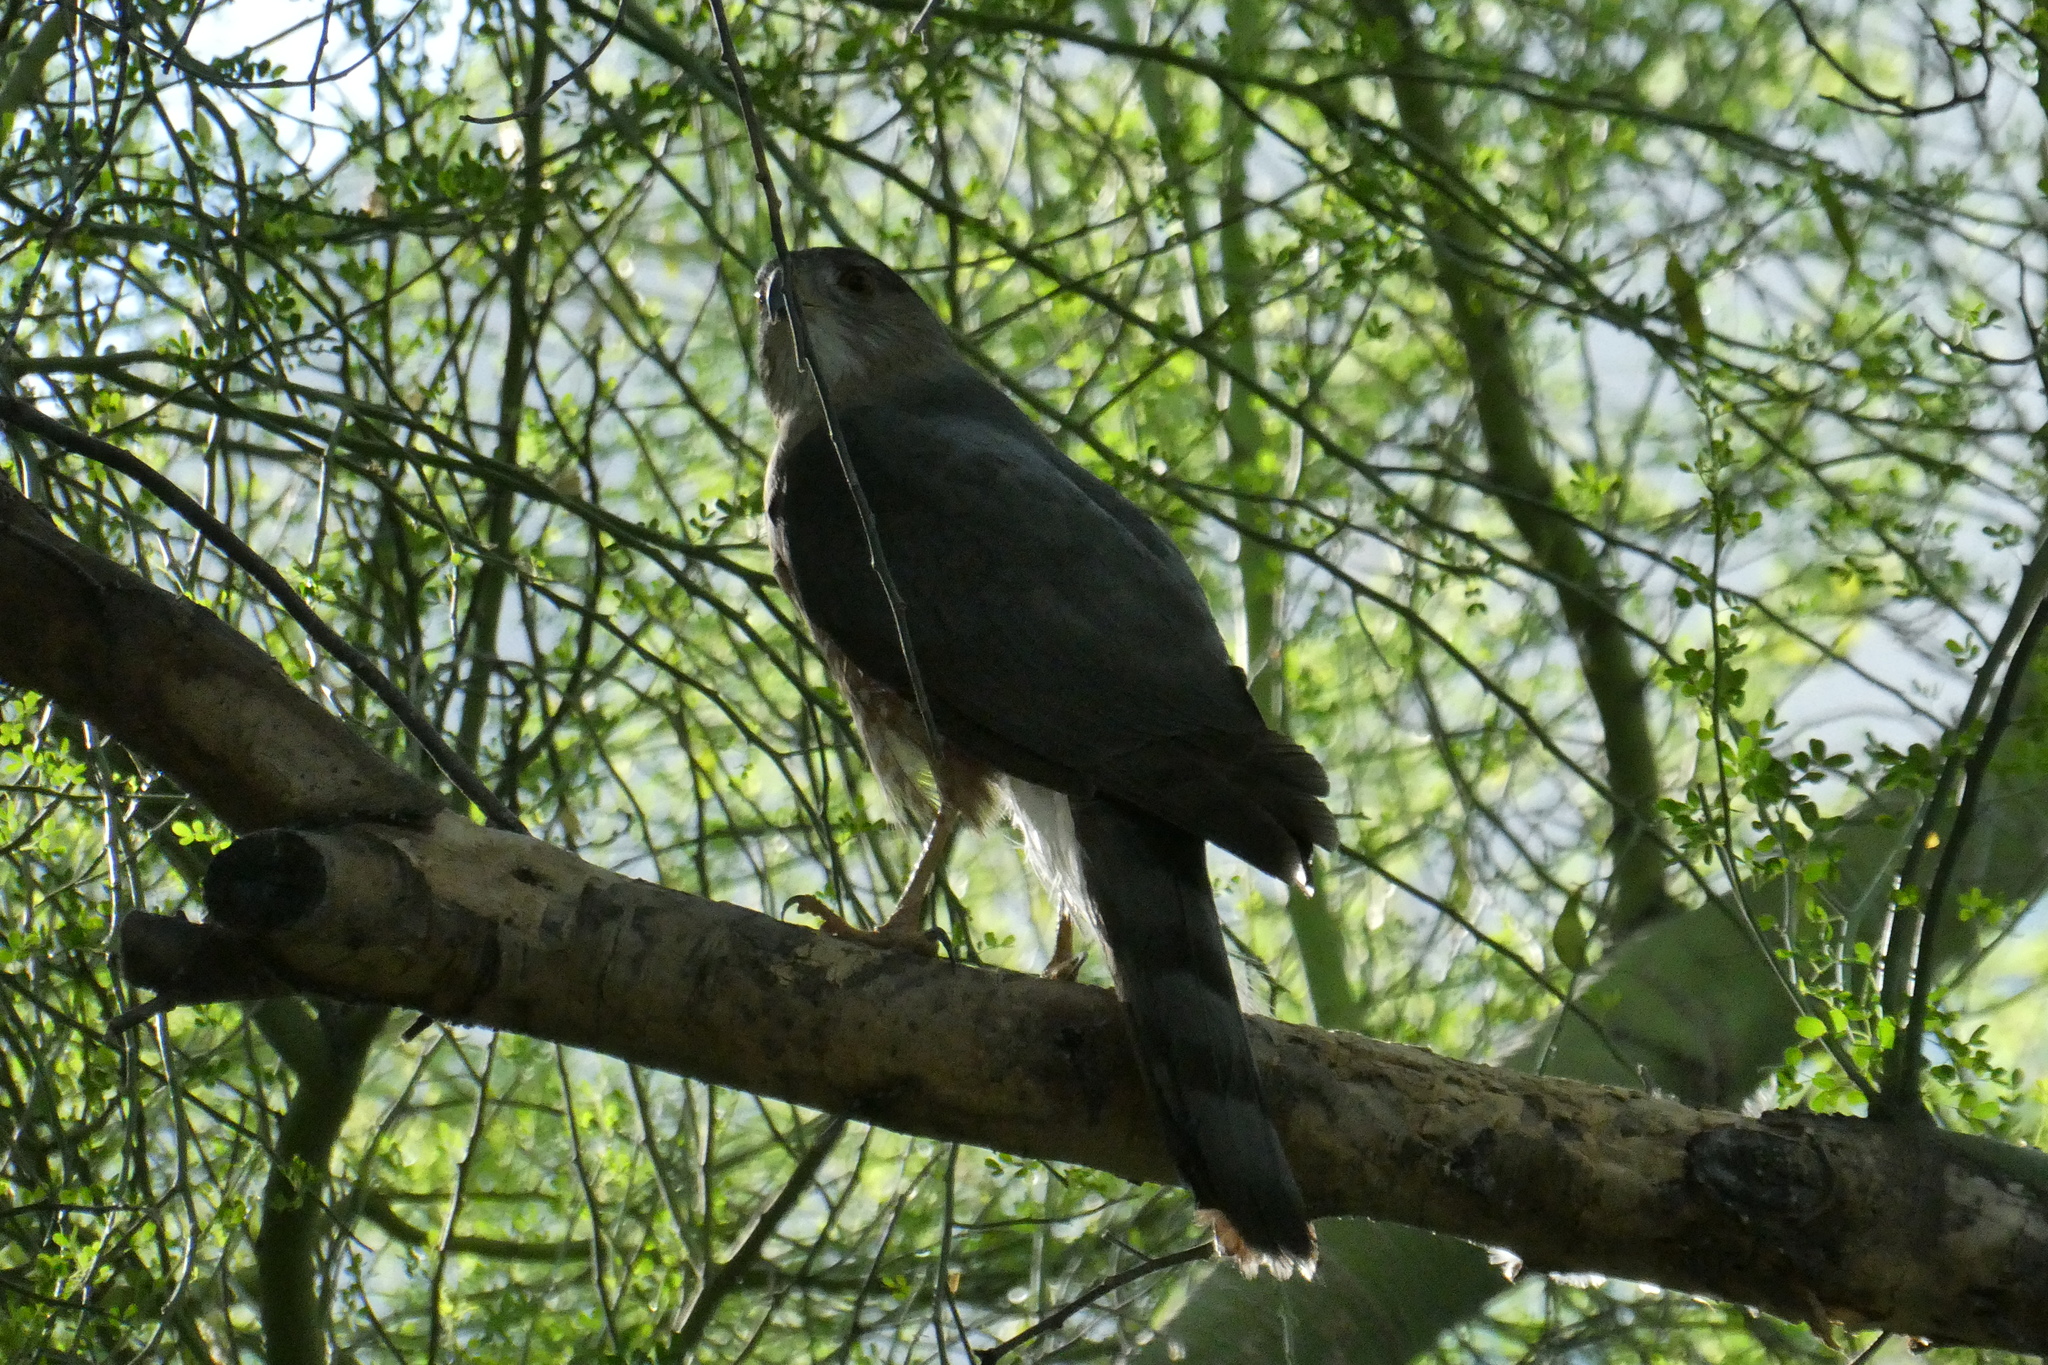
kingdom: Animalia
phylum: Chordata
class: Aves
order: Accipitriformes
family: Accipitridae
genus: Accipiter
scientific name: Accipiter cooperii
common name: Cooper's hawk
